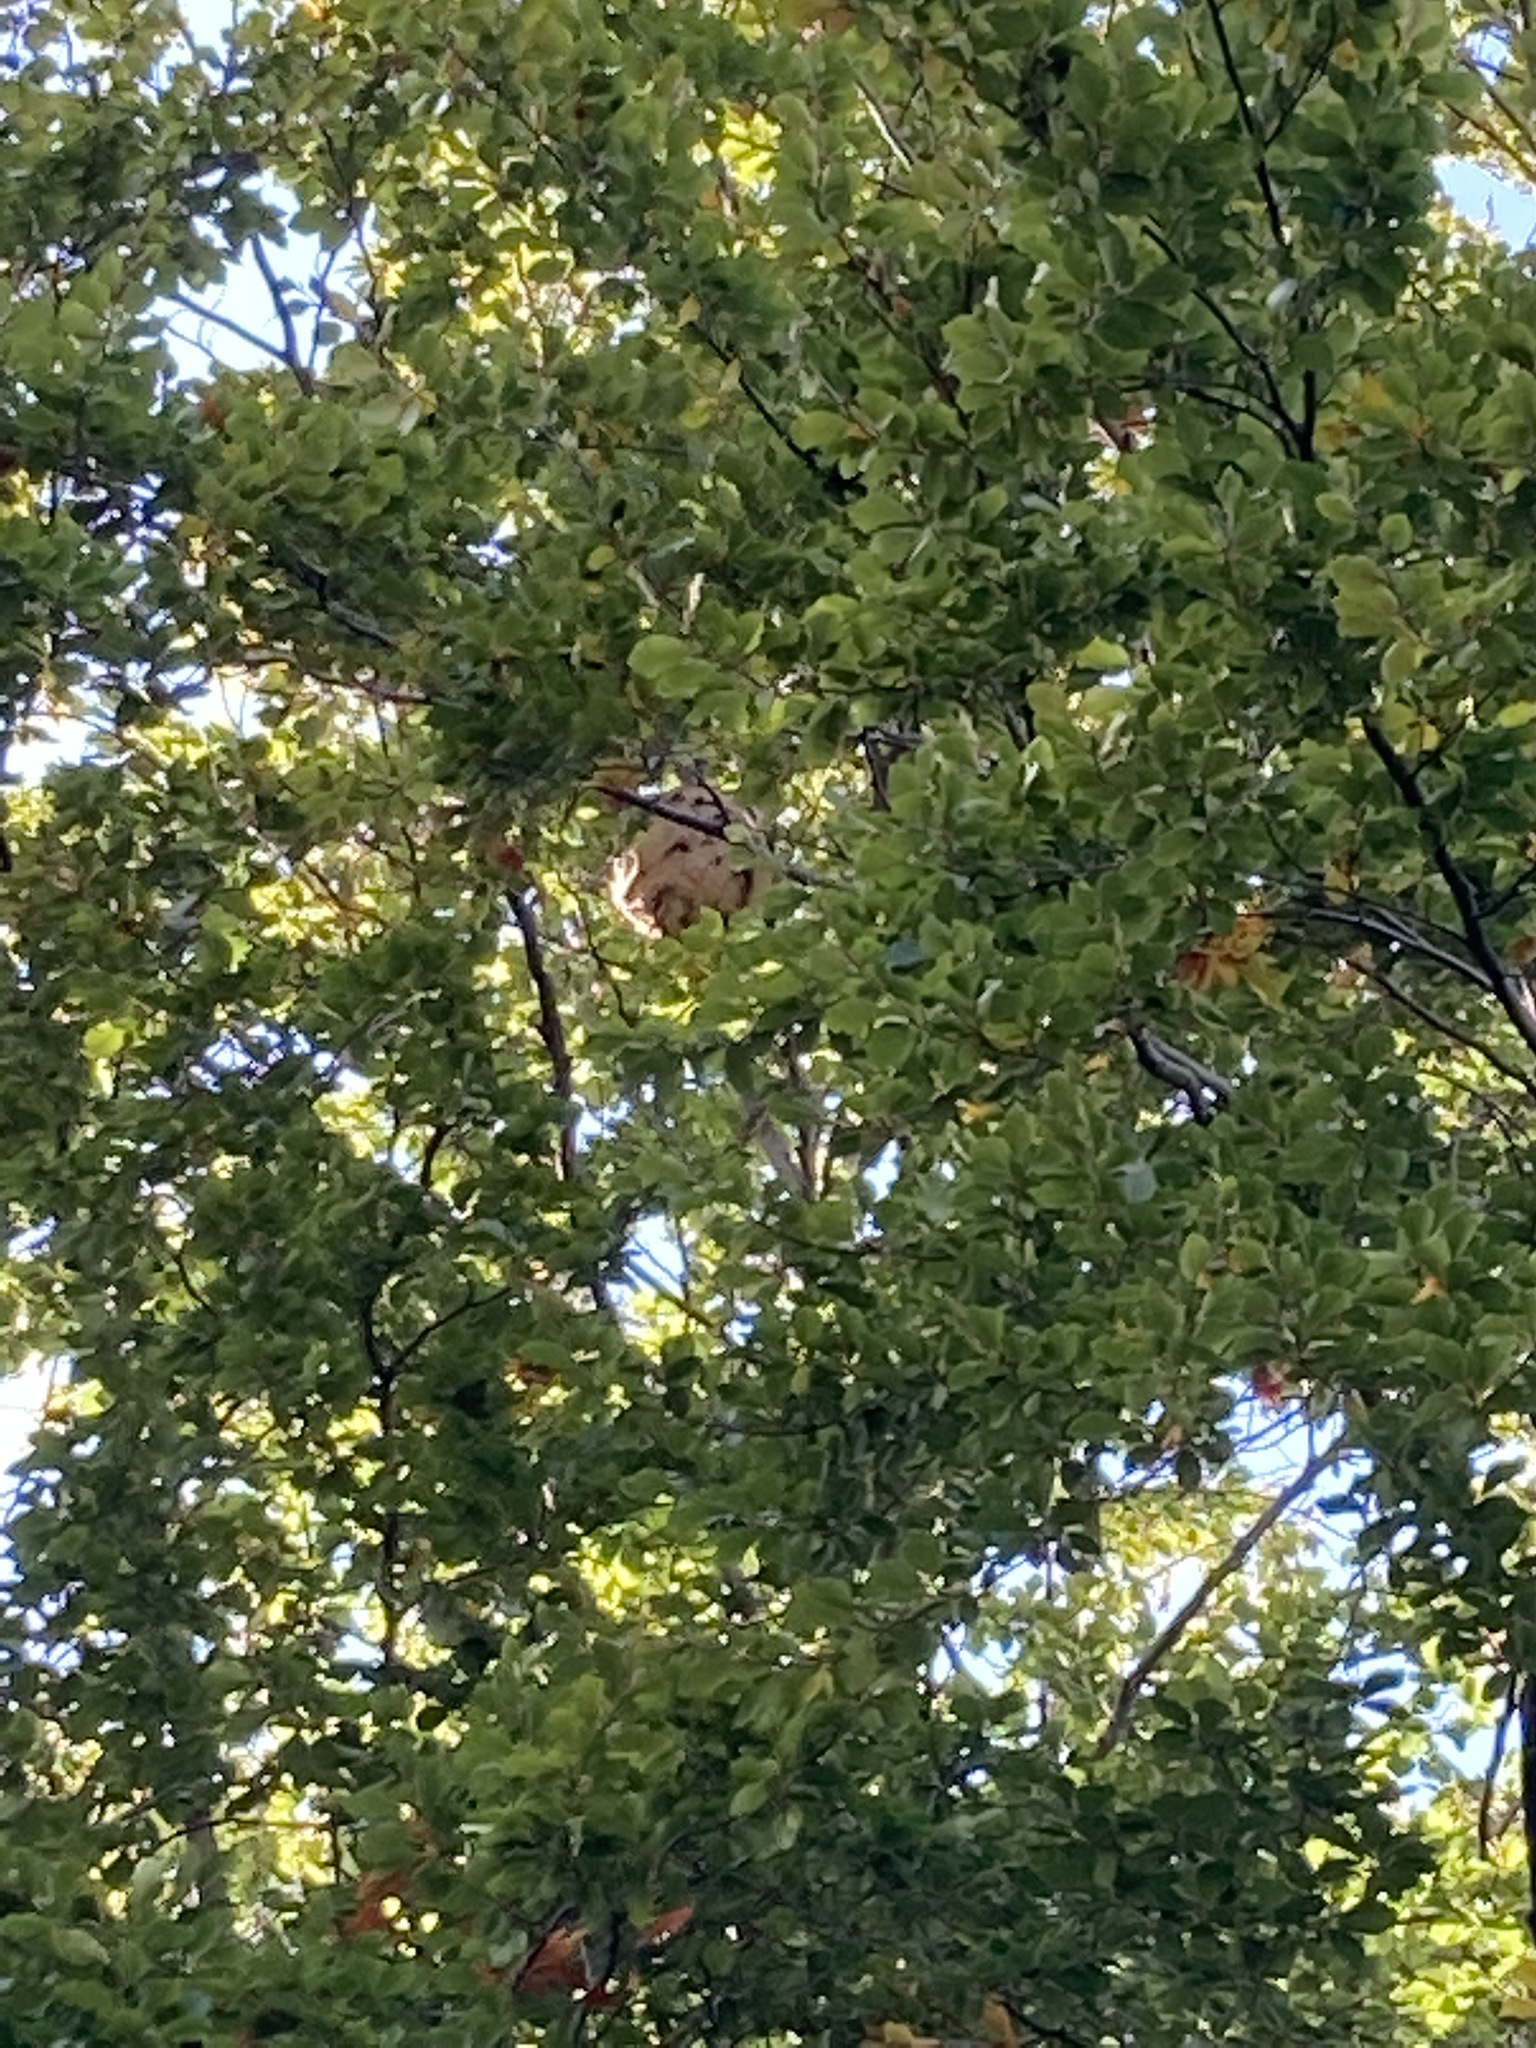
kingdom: Animalia
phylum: Arthropoda
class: Insecta
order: Hymenoptera
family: Vespidae
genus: Vespa
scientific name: Vespa velutina
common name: Asian hornet
